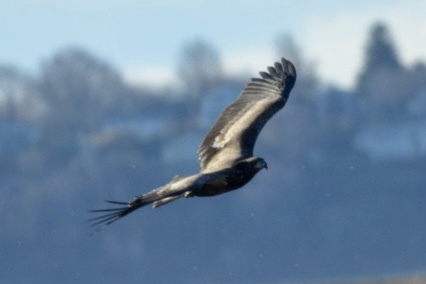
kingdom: Animalia
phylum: Chordata
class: Aves
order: Accipitriformes
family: Accipitridae
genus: Haliaeetus
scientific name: Haliaeetus leucocephalus
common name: Bald eagle
